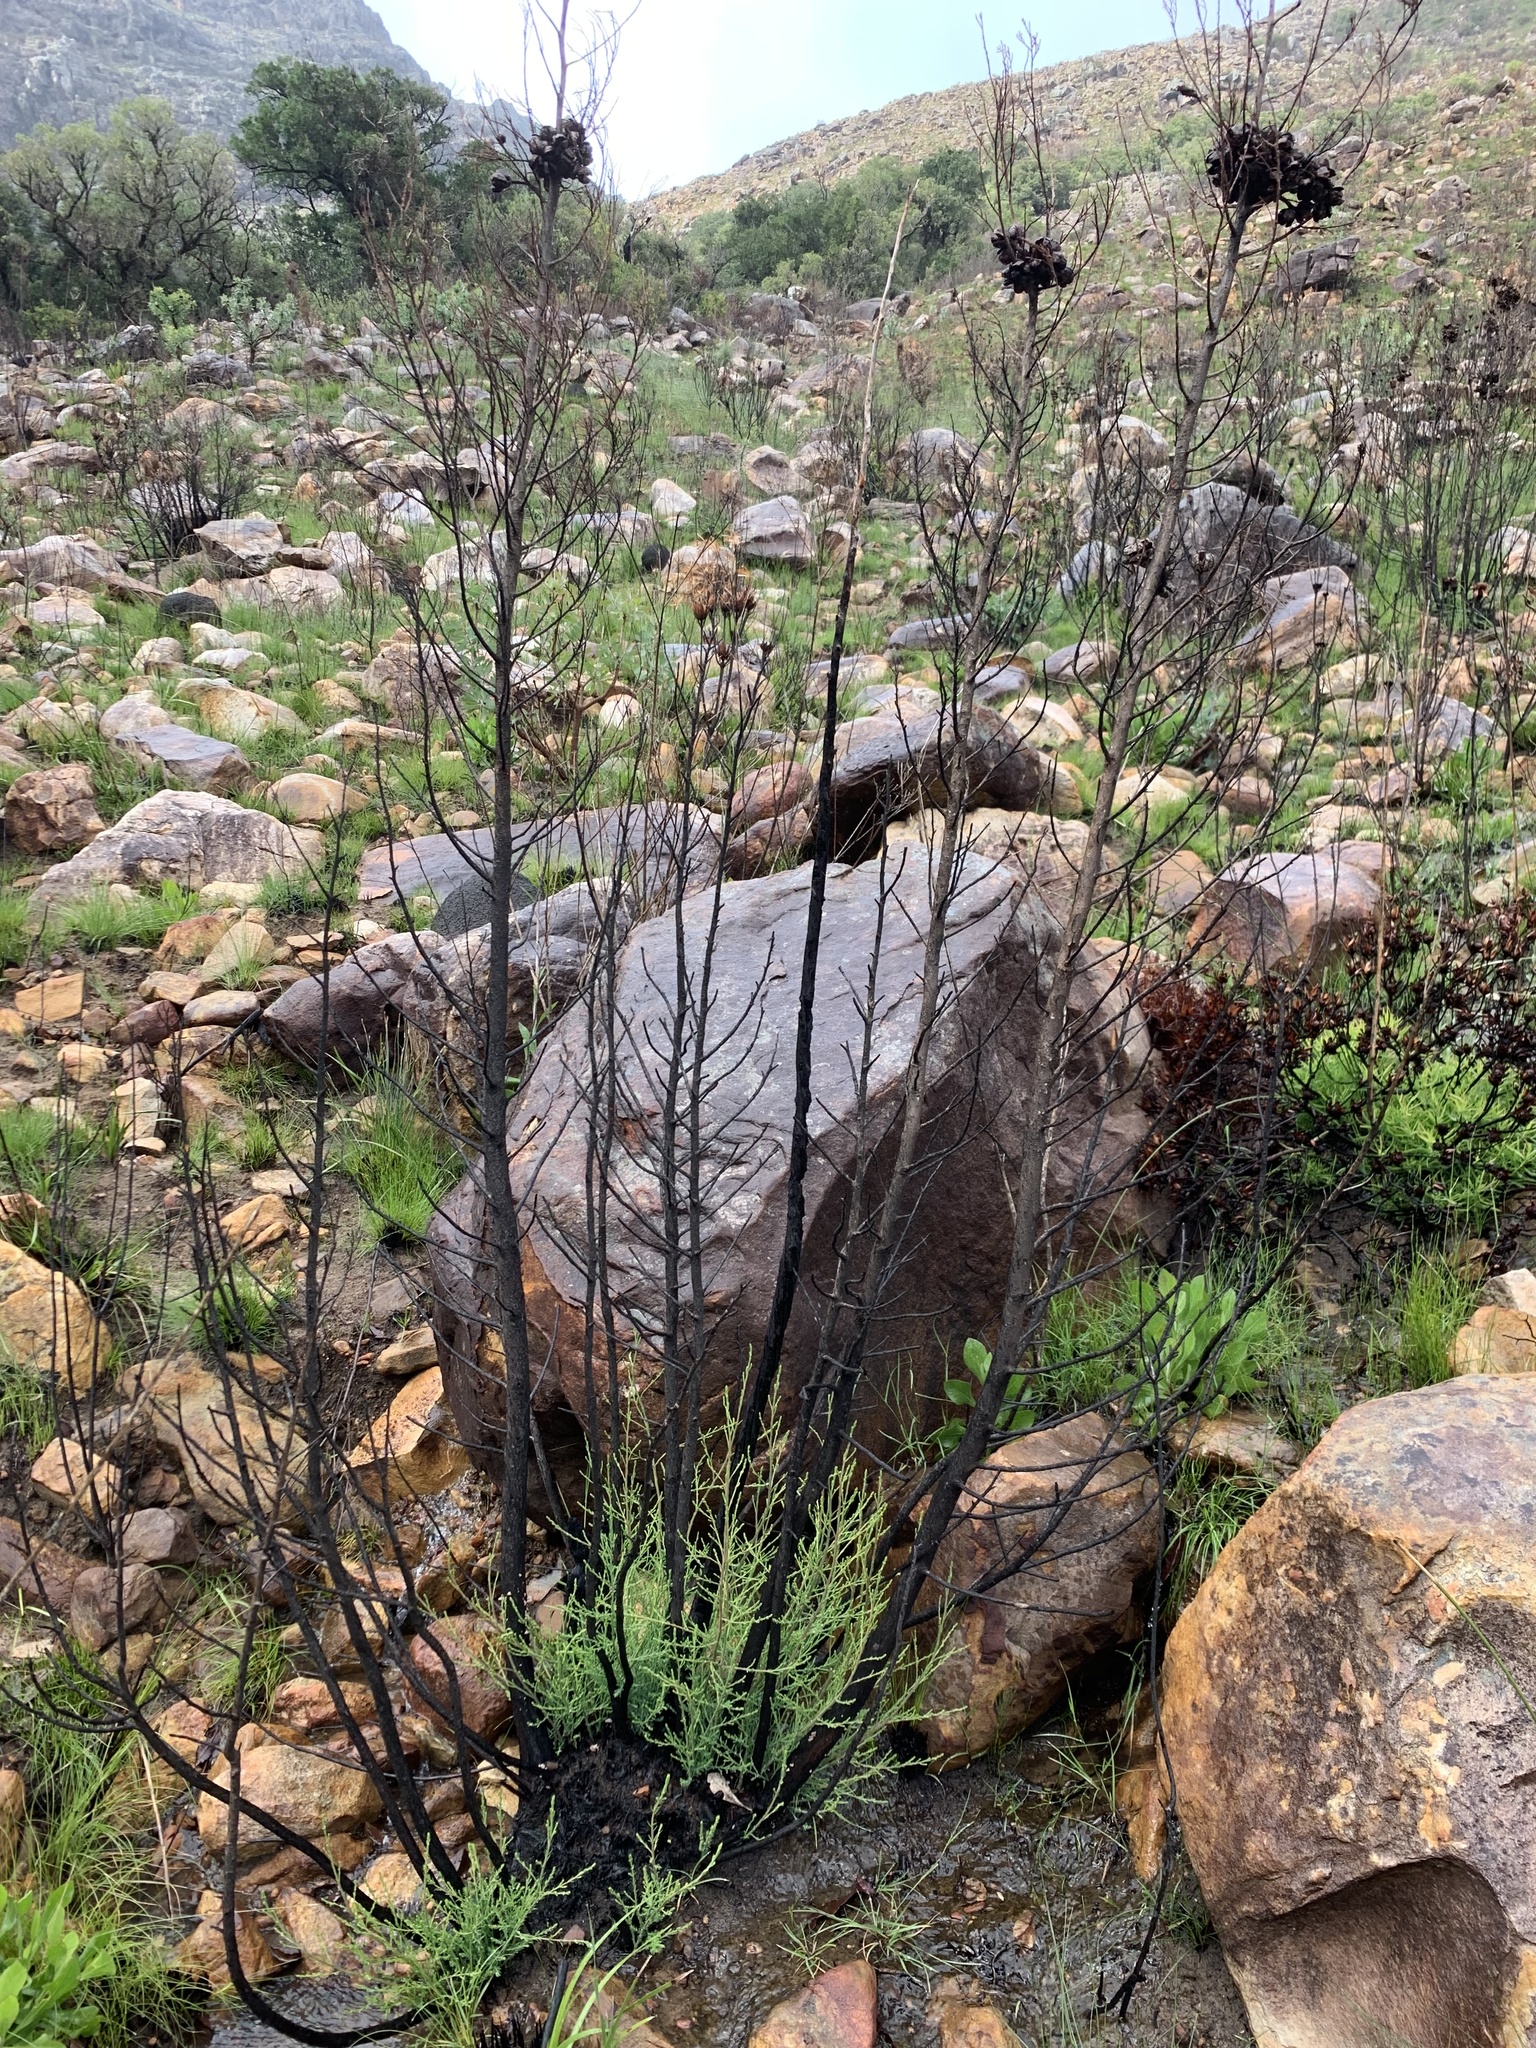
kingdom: Plantae
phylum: Tracheophyta
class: Pinopsida
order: Pinales
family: Cupressaceae
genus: Widdringtonia
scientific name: Widdringtonia nodiflora
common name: Cape cypress
